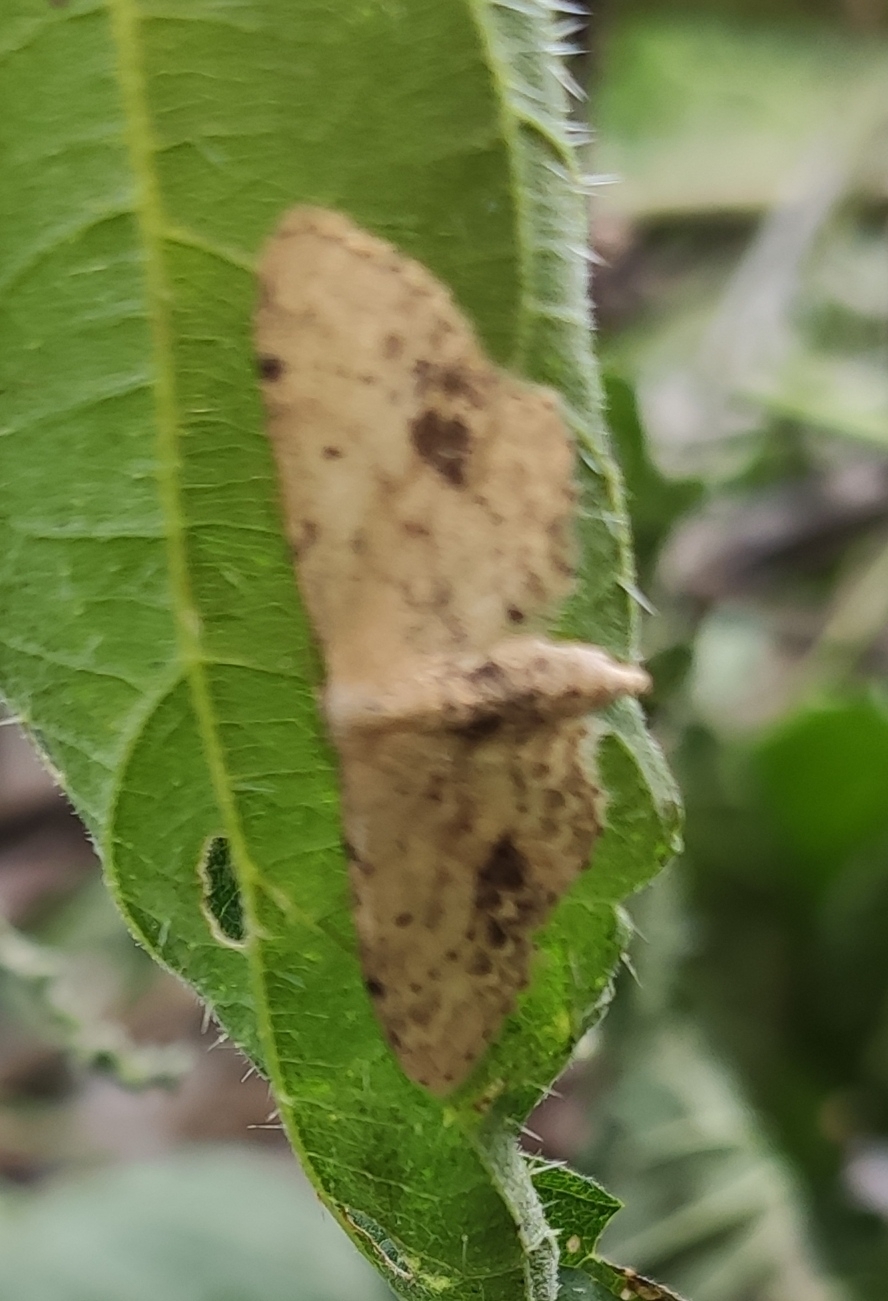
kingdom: Animalia
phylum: Arthropoda
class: Insecta
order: Lepidoptera
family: Geometridae
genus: Idaea
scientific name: Idaea dimidiata
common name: Single-dotted wave
